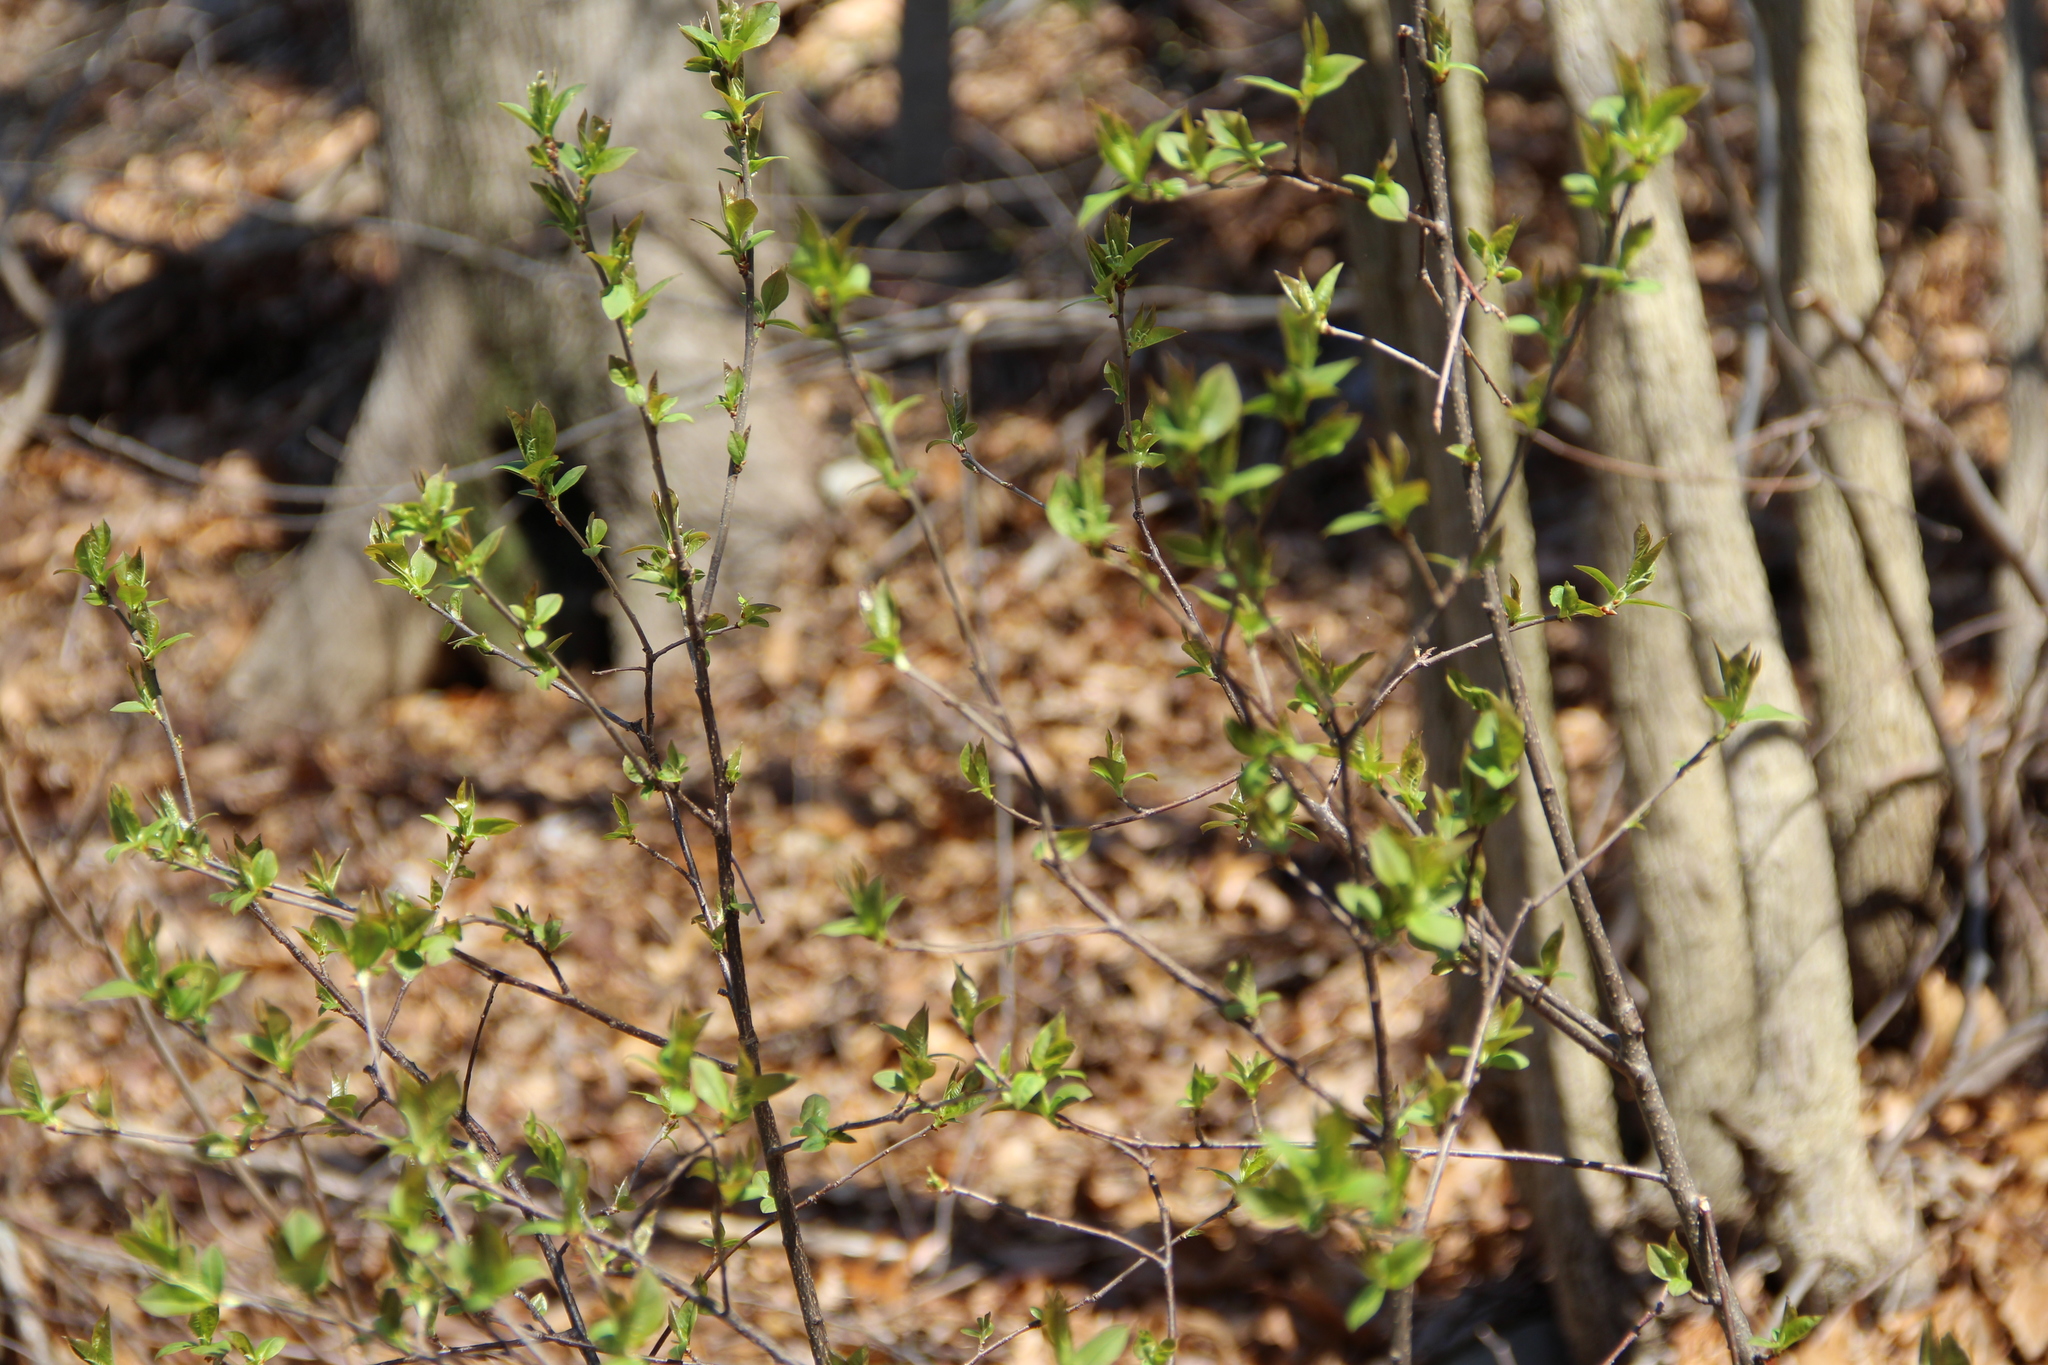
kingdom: Plantae
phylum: Tracheophyta
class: Magnoliopsida
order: Rosales
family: Elaeagnaceae
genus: Elaeagnus
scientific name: Elaeagnus umbellata
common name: Autumn olive
